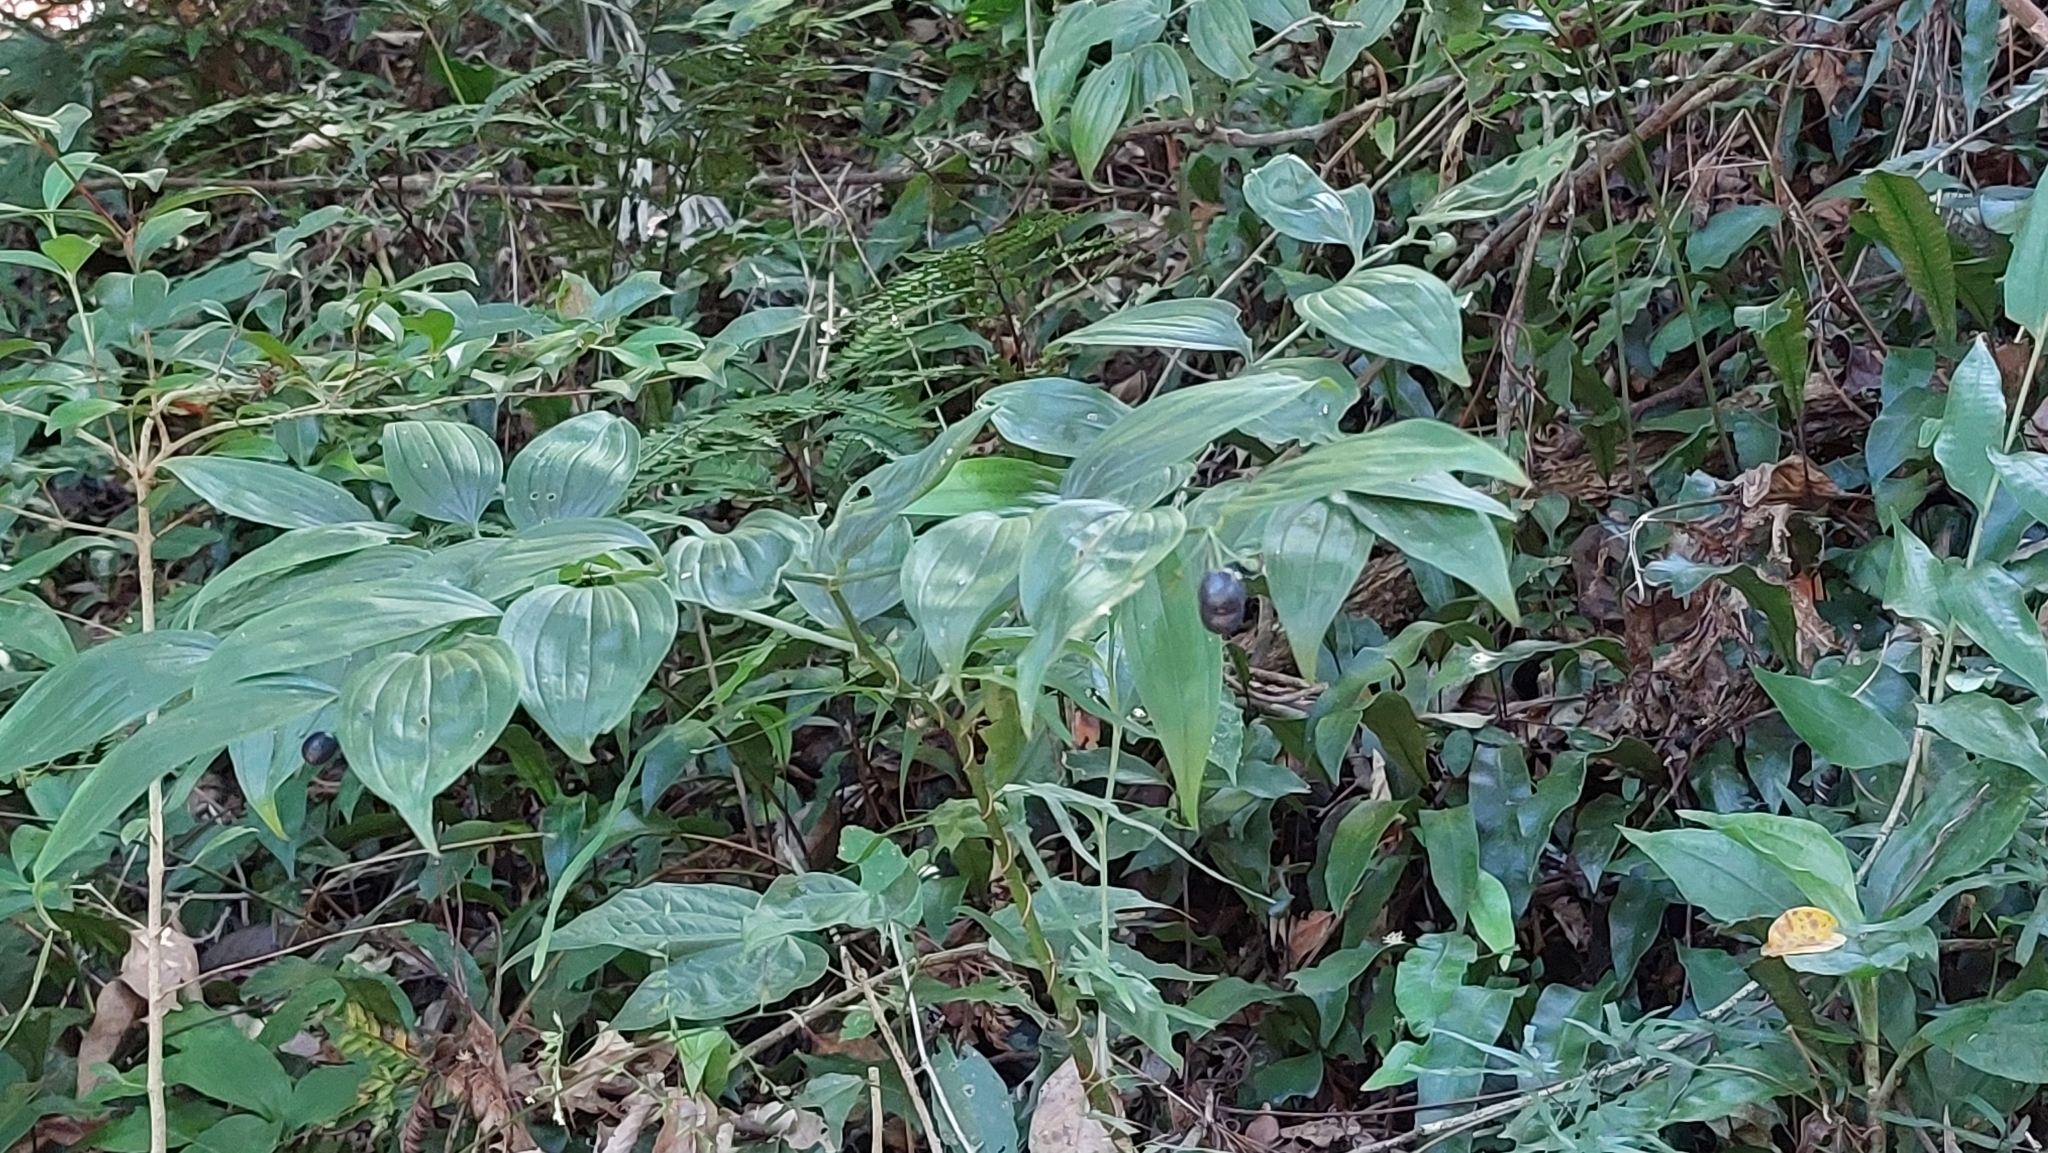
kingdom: Plantae
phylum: Tracheophyta
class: Liliopsida
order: Liliales
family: Colchicaceae
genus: Disporum
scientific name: Disporum kawakamii
